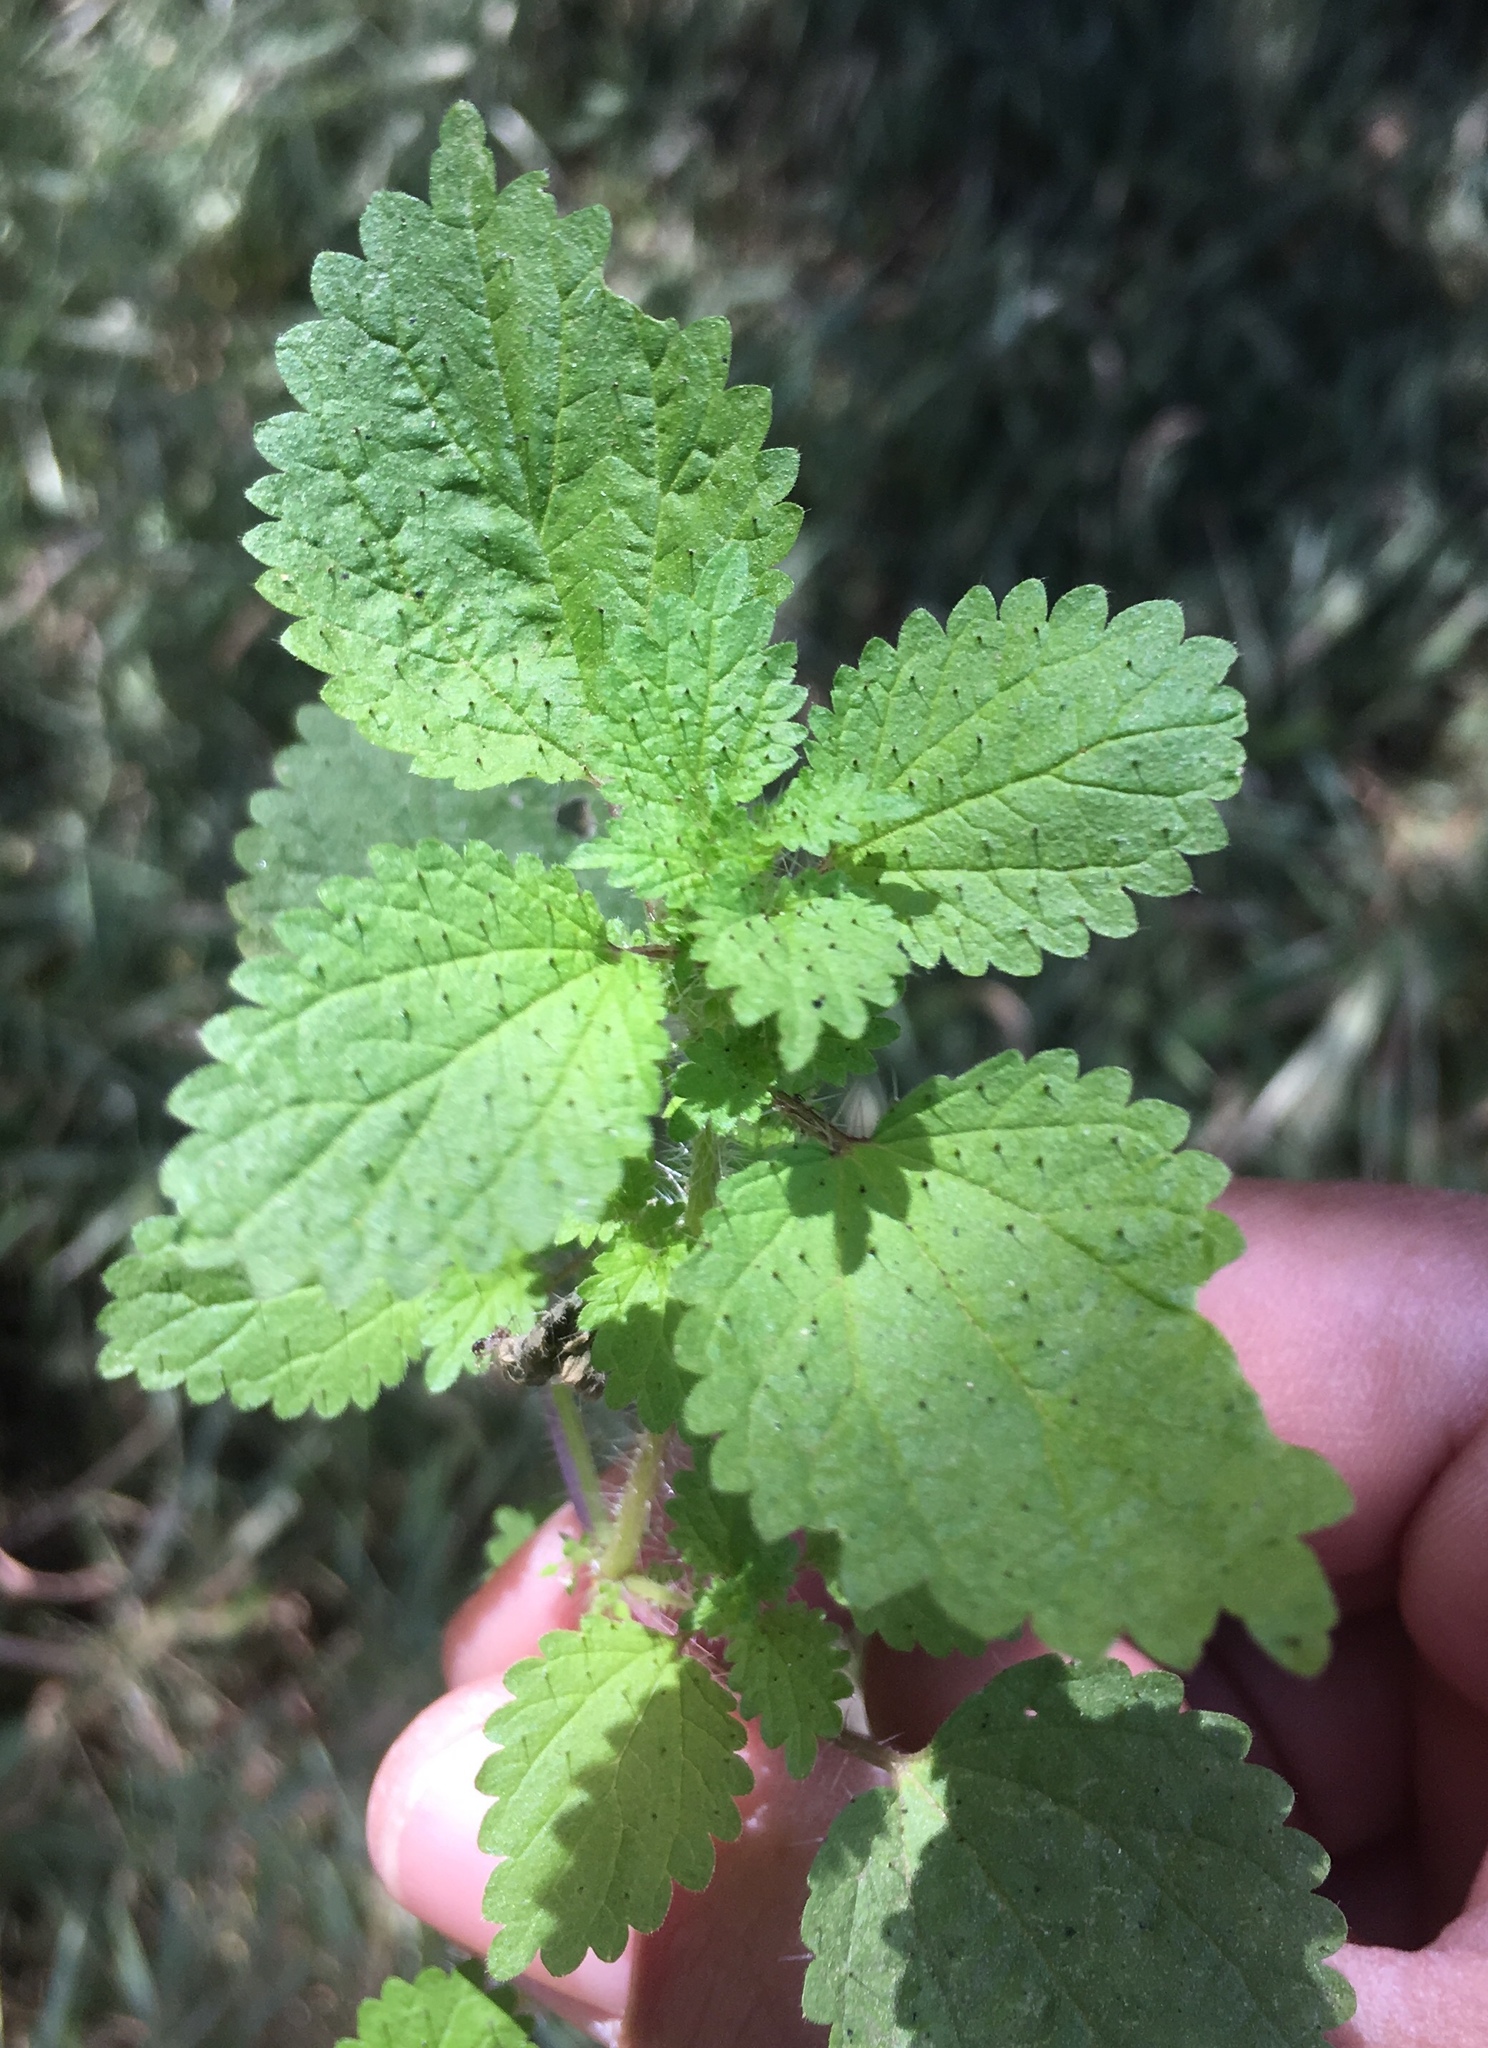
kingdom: Plantae
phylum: Tracheophyta
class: Magnoliopsida
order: Rosales
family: Urticaceae
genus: Hesperocnide
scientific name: Hesperocnide tenella
